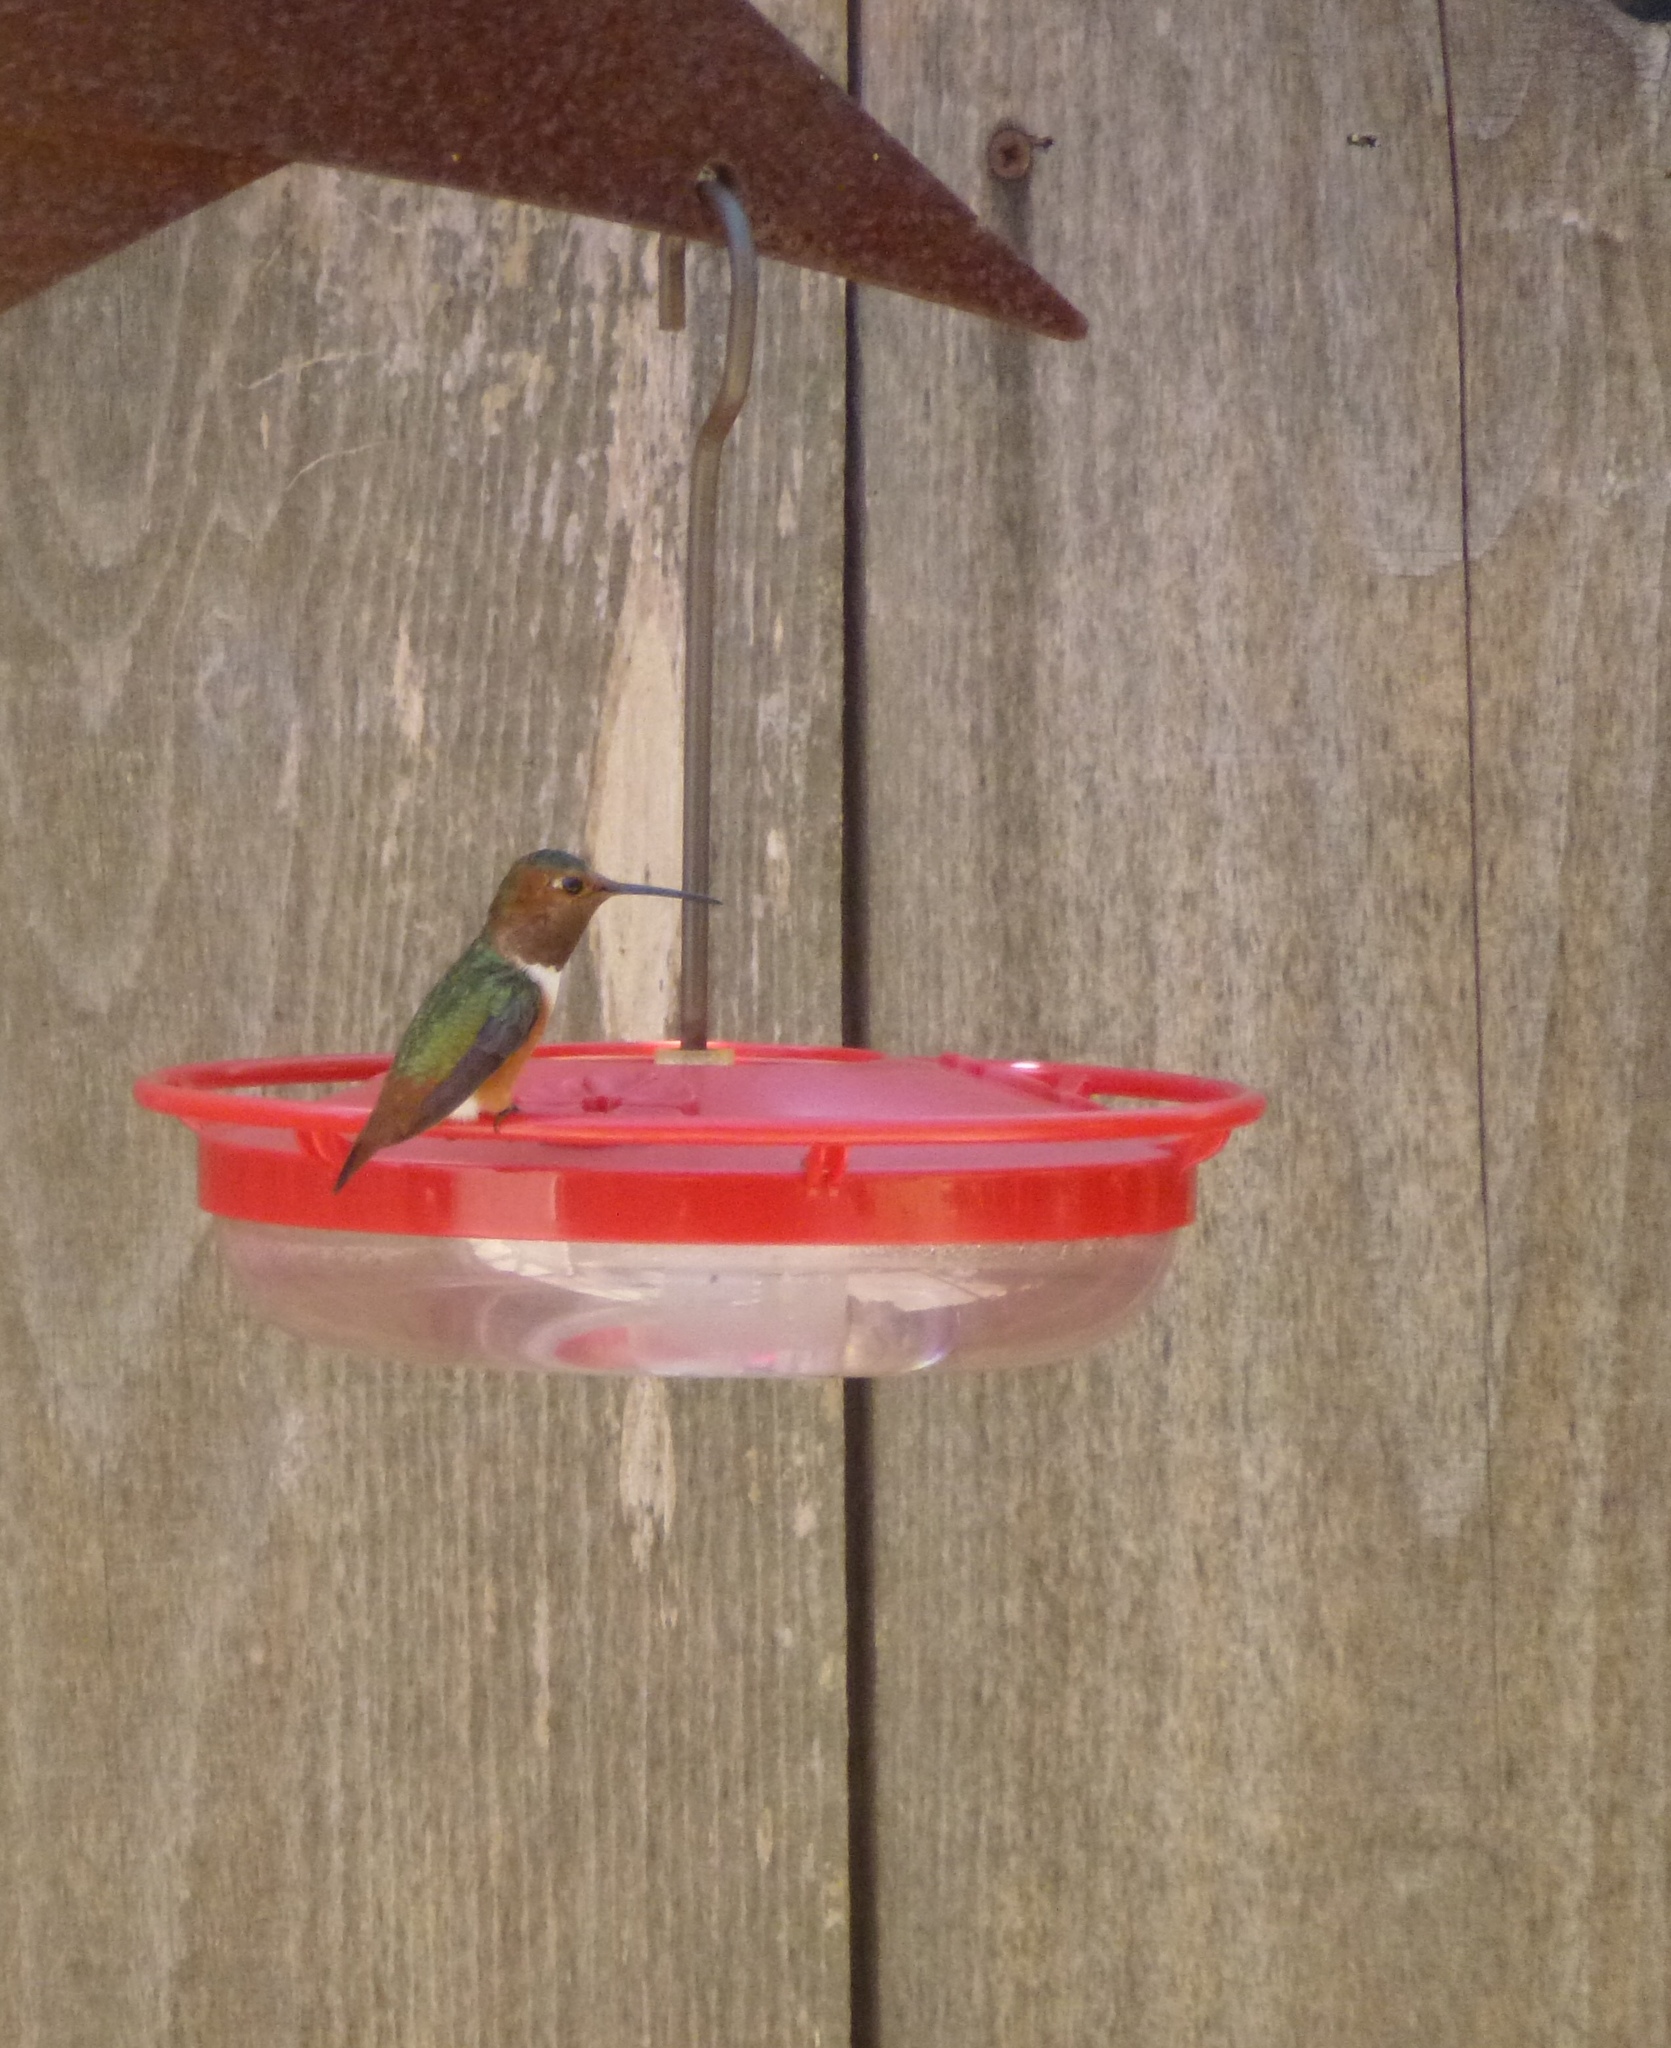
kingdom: Animalia
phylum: Chordata
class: Aves
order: Apodiformes
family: Trochilidae
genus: Selasphorus
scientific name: Selasphorus sasin
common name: Allen's hummingbird
